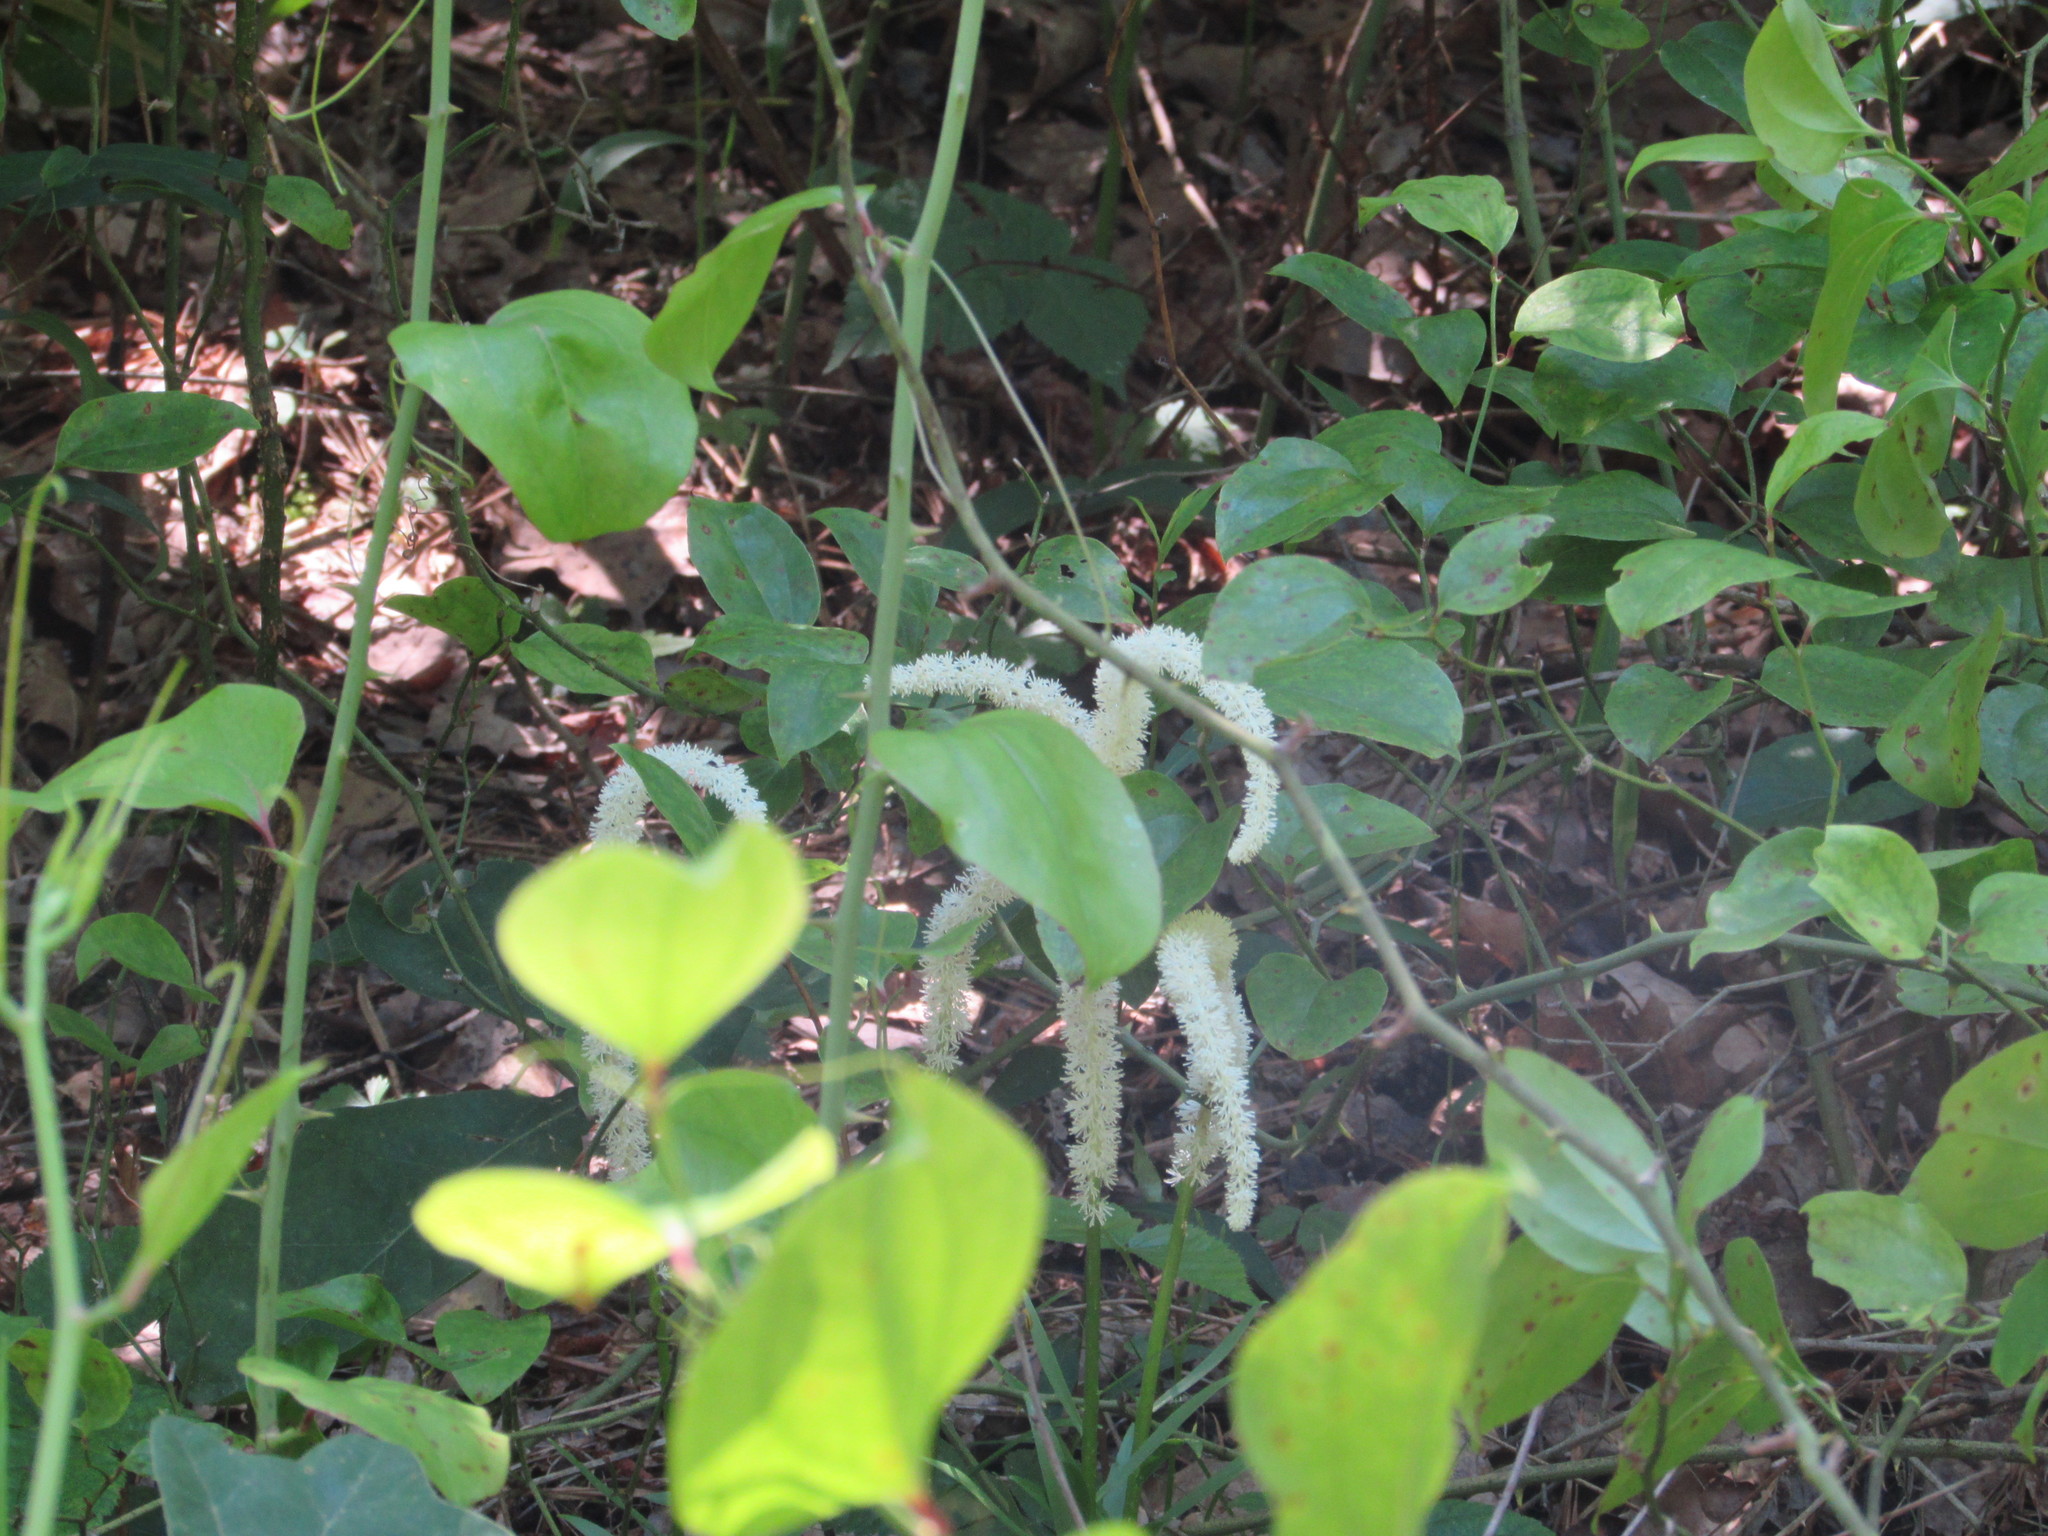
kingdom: Plantae
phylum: Tracheophyta
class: Liliopsida
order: Liliales
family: Melanthiaceae
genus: Chamaelirium
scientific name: Chamaelirium luteum
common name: Fairy-wand
